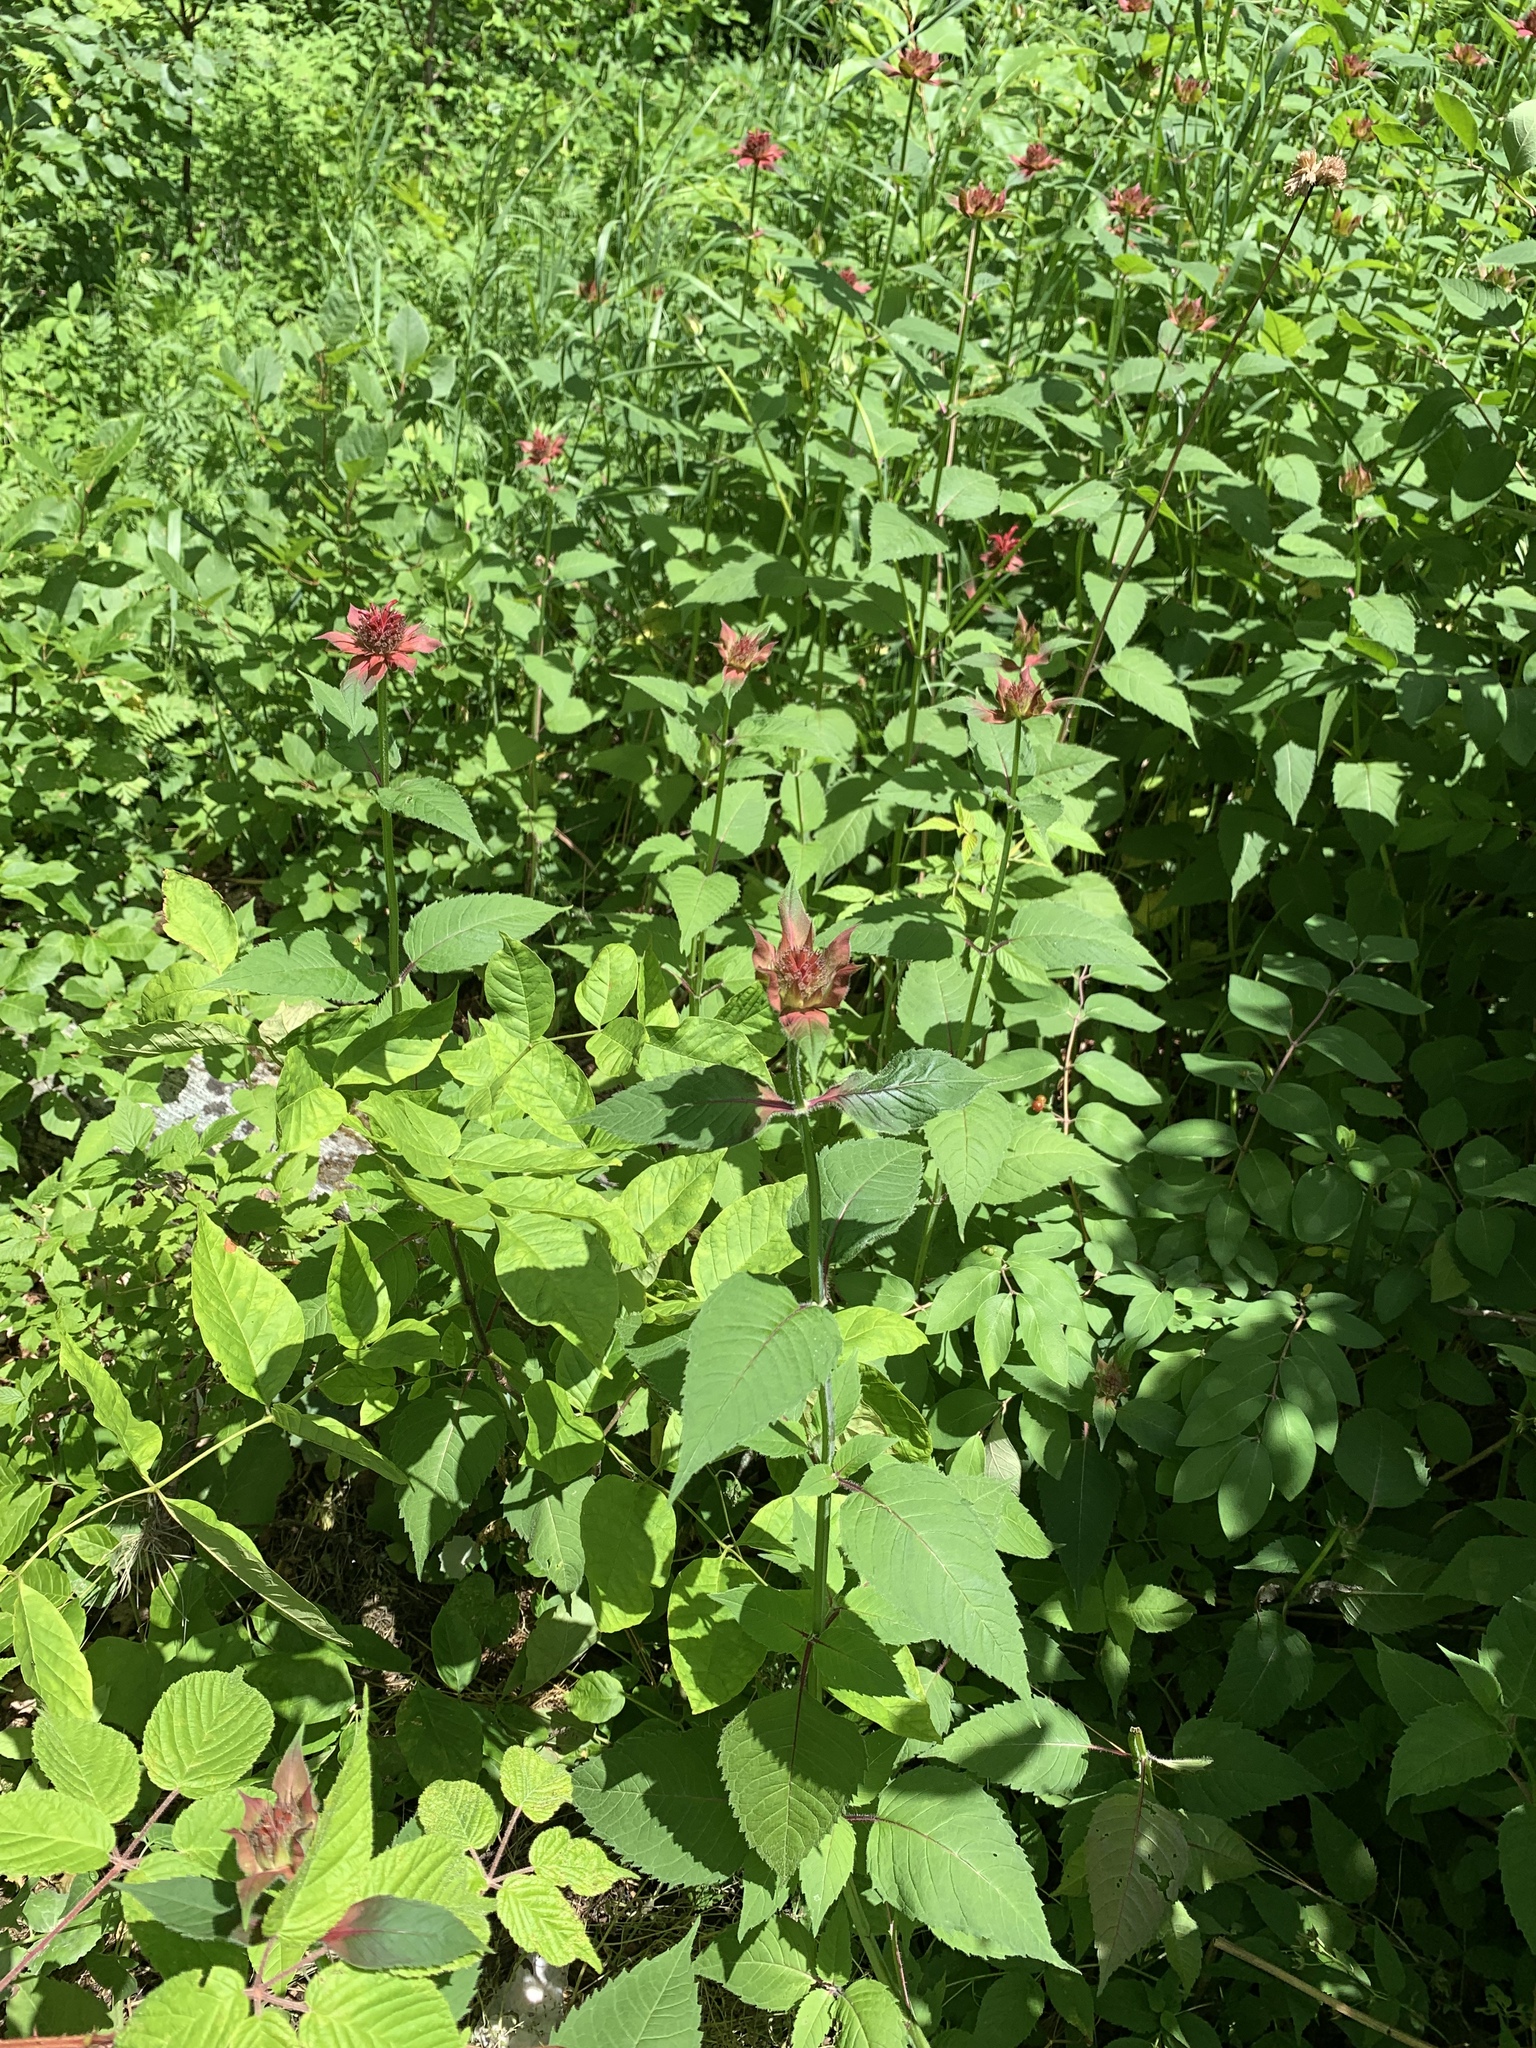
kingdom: Plantae
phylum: Tracheophyta
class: Magnoliopsida
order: Lamiales
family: Lamiaceae
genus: Monarda
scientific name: Monarda didyma
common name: Beebalm
